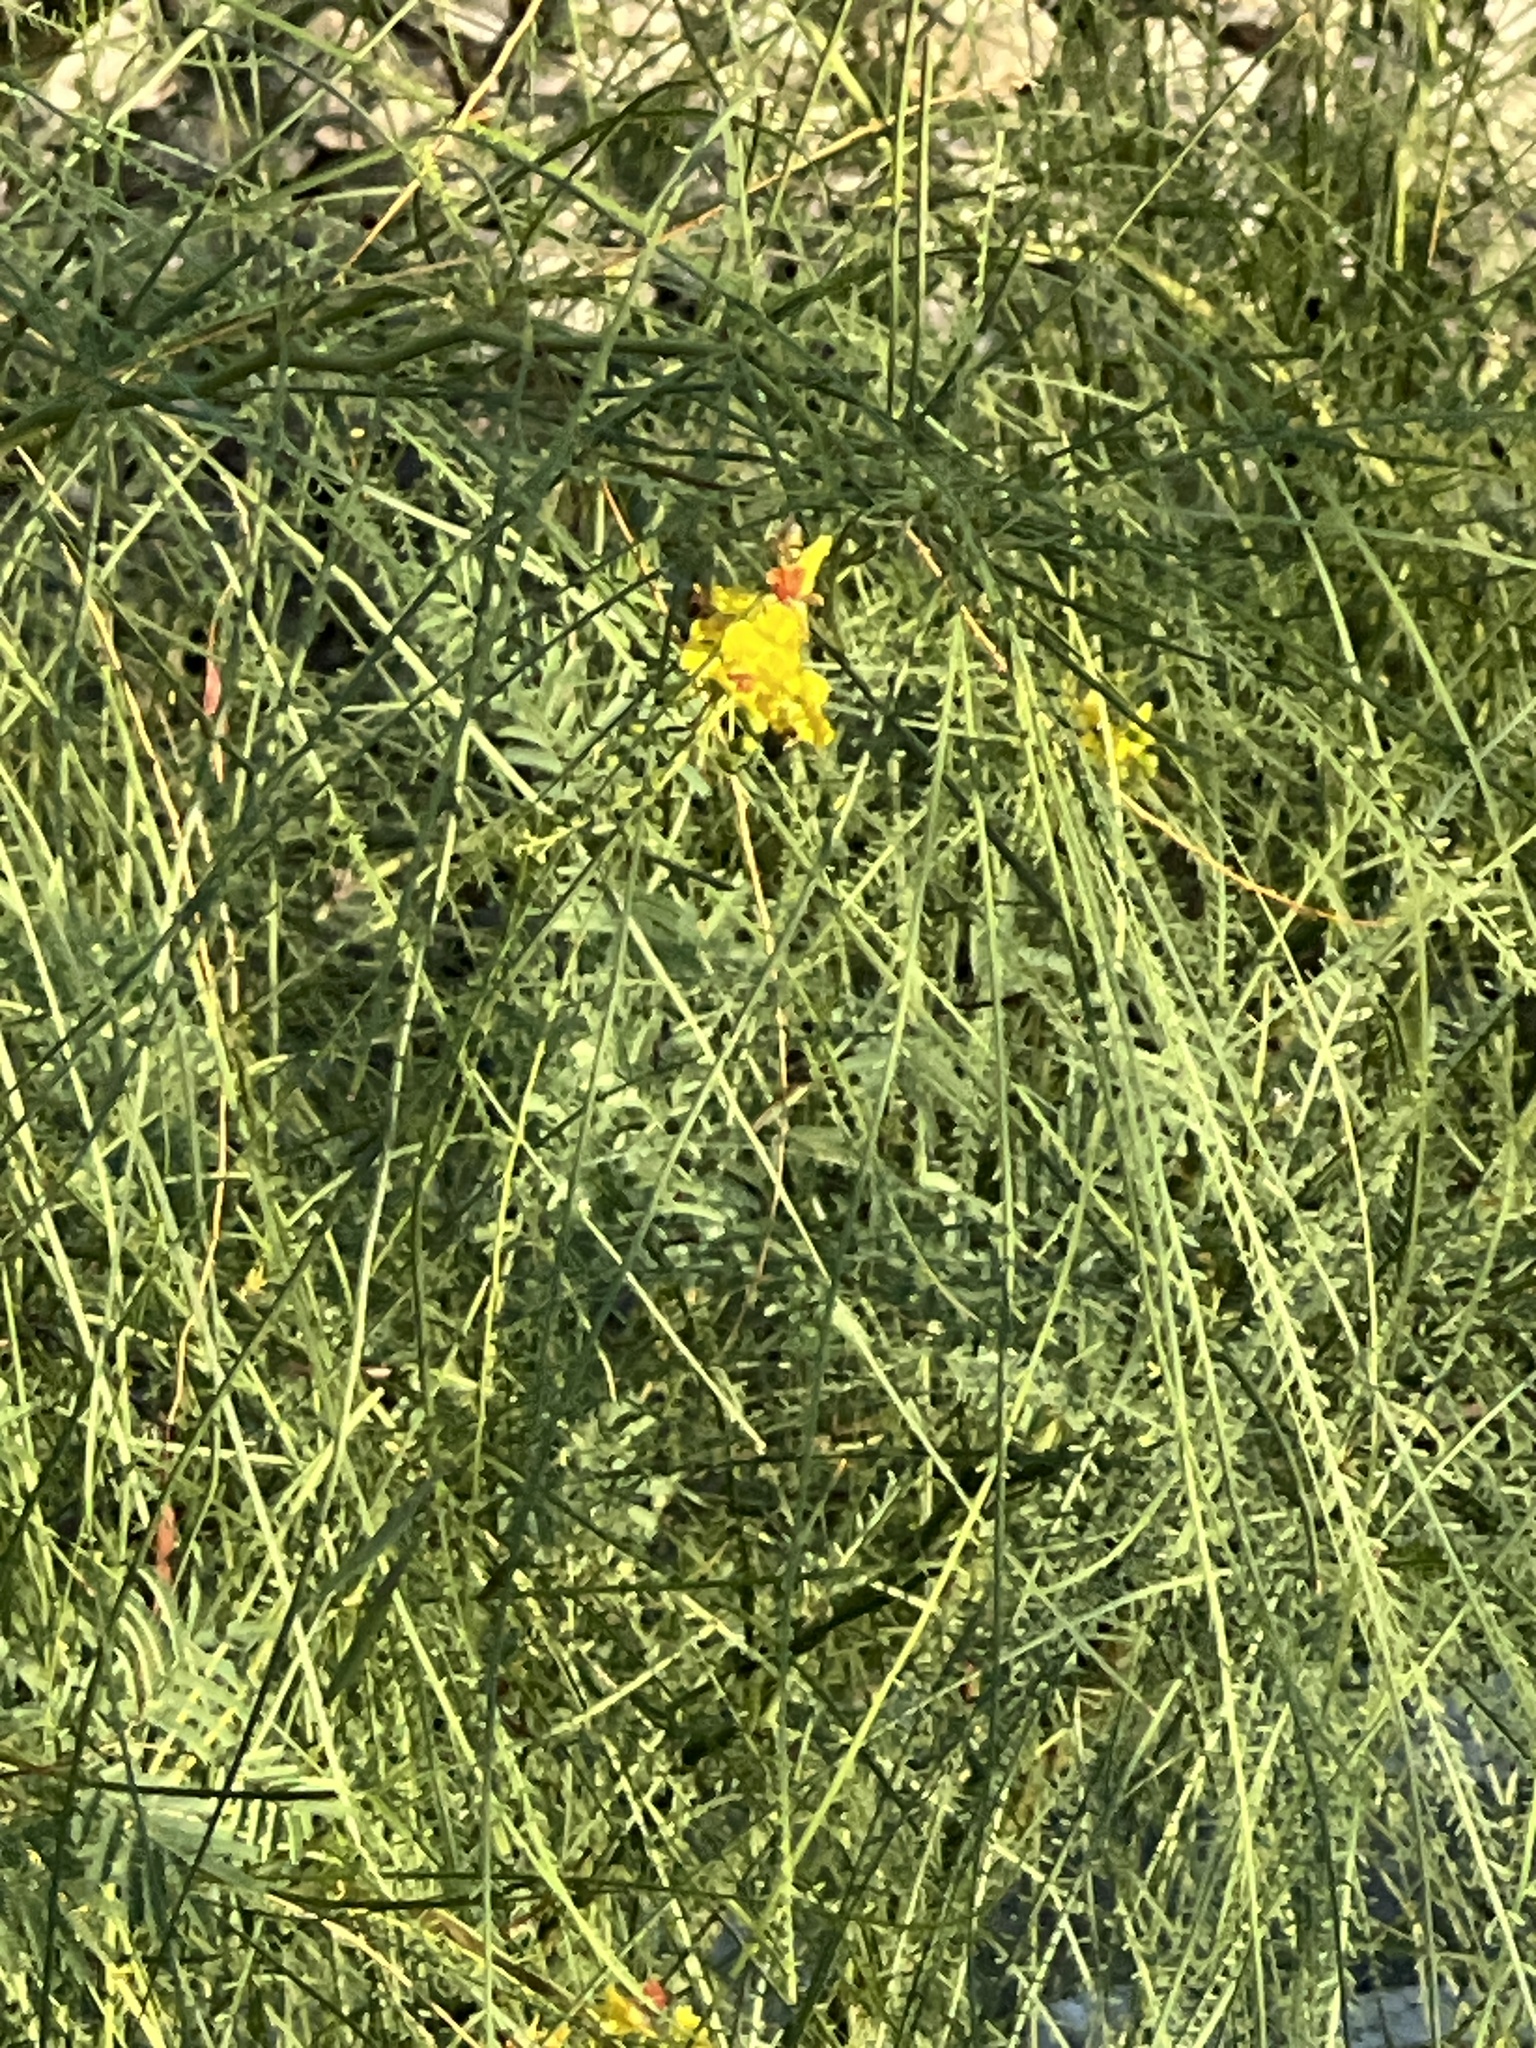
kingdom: Plantae
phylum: Tracheophyta
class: Magnoliopsida
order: Fabales
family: Fabaceae
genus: Parkinsonia
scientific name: Parkinsonia aculeata
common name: Jerusalem thorn
